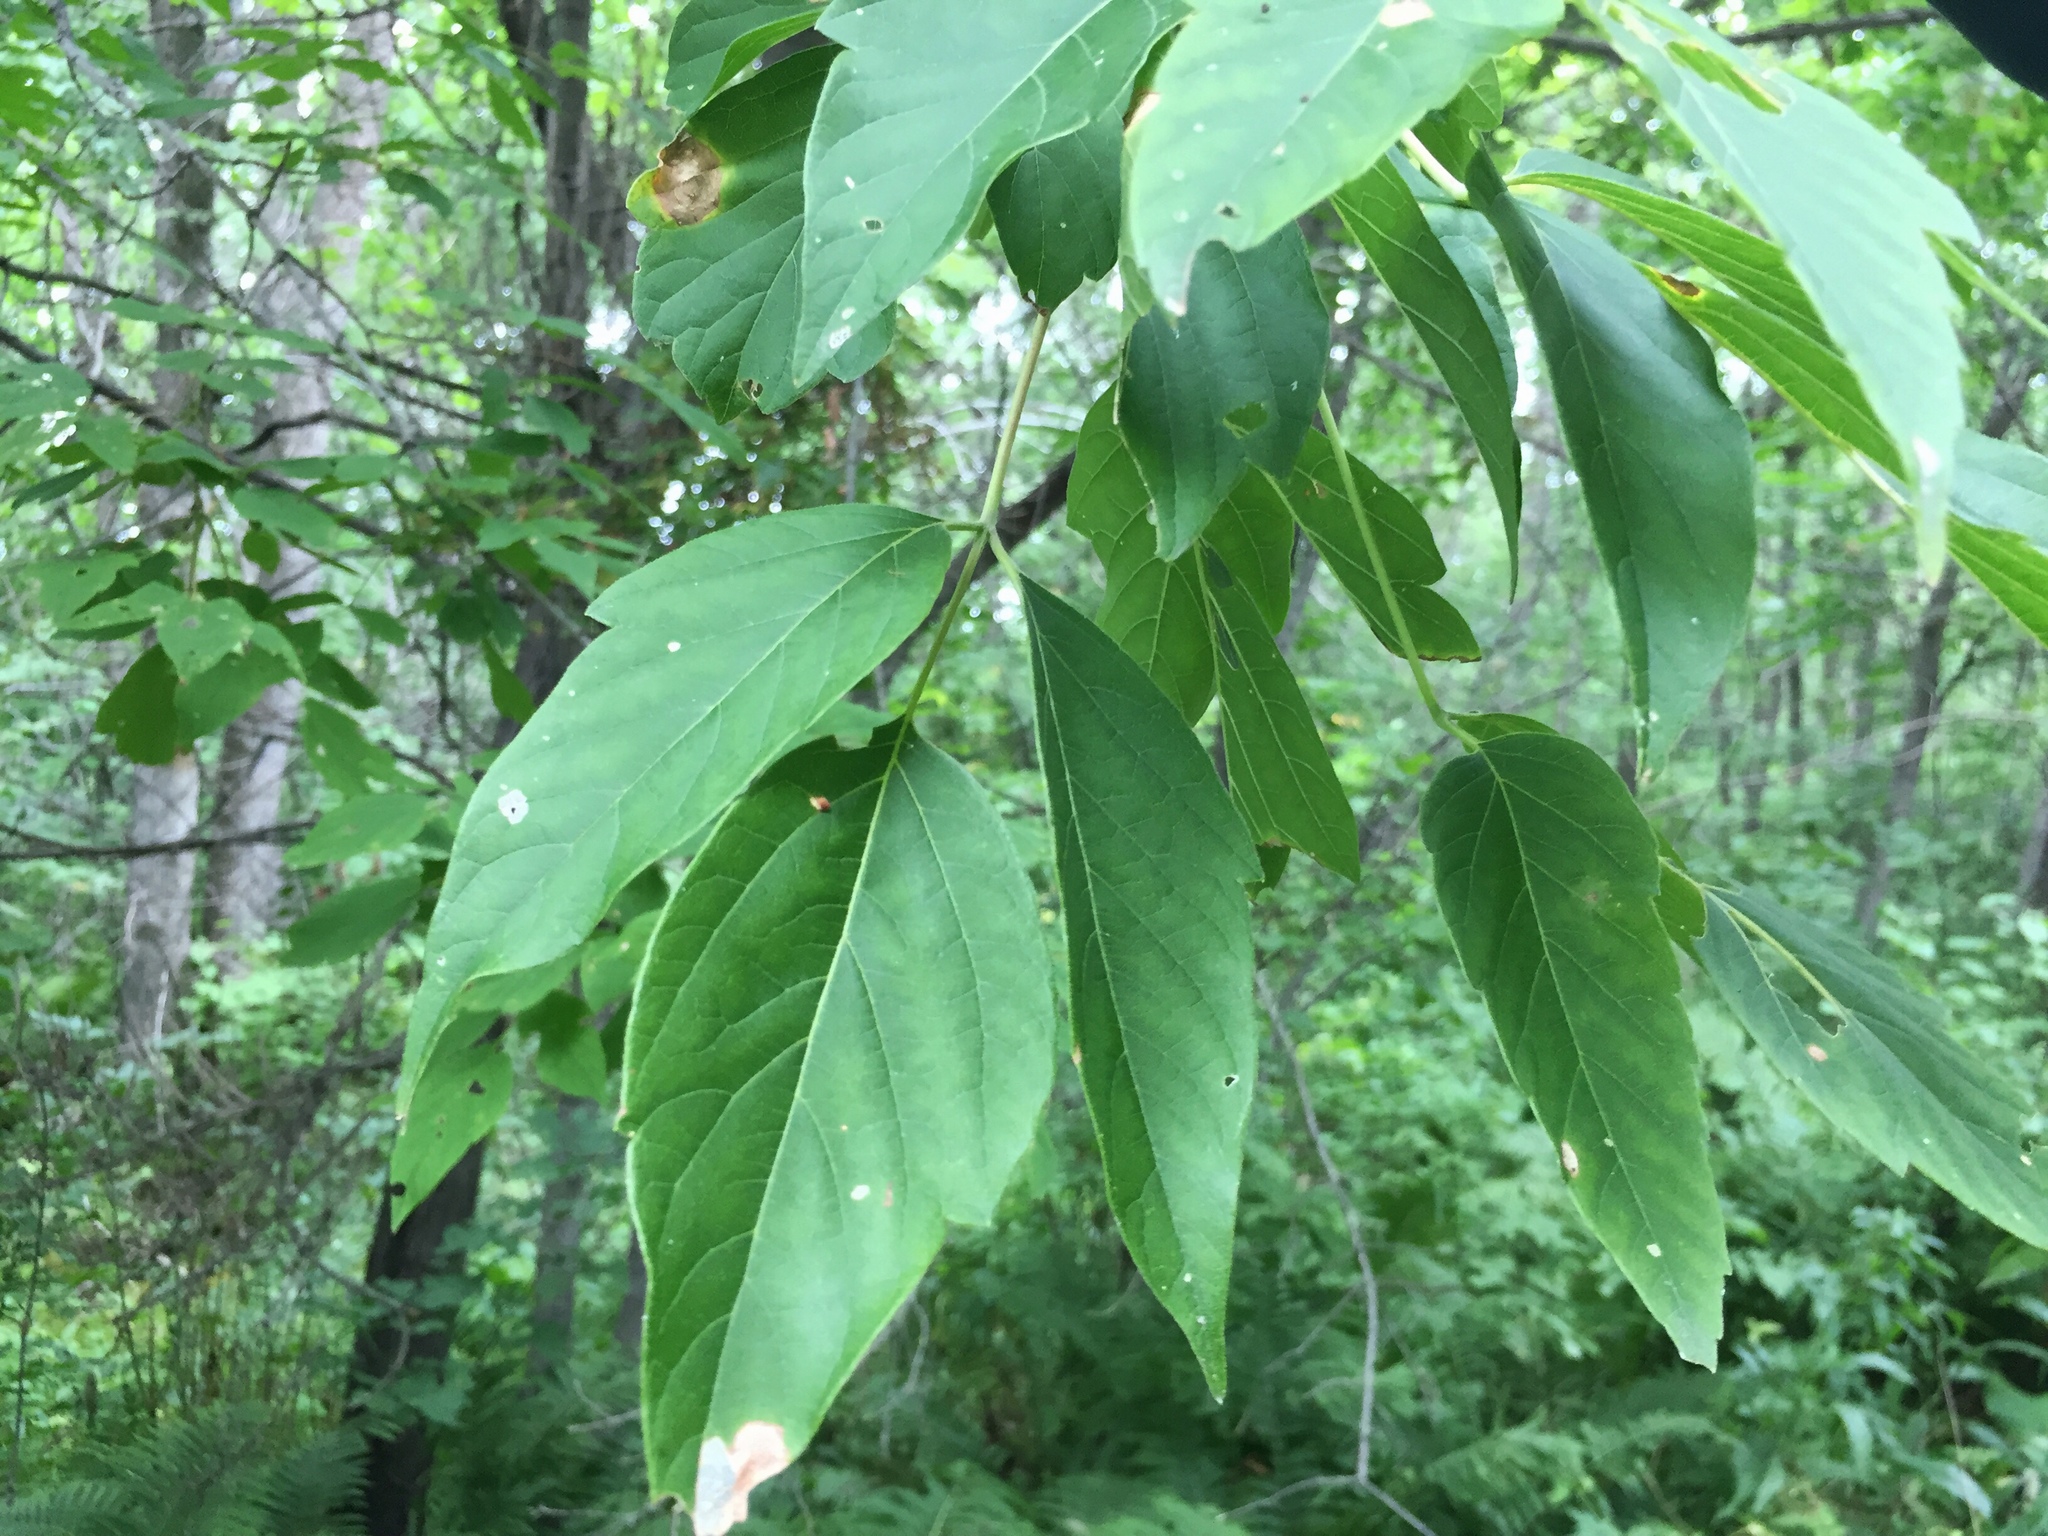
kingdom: Plantae
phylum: Tracheophyta
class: Magnoliopsida
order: Sapindales
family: Sapindaceae
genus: Acer
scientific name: Acer negundo
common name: Ashleaf maple
